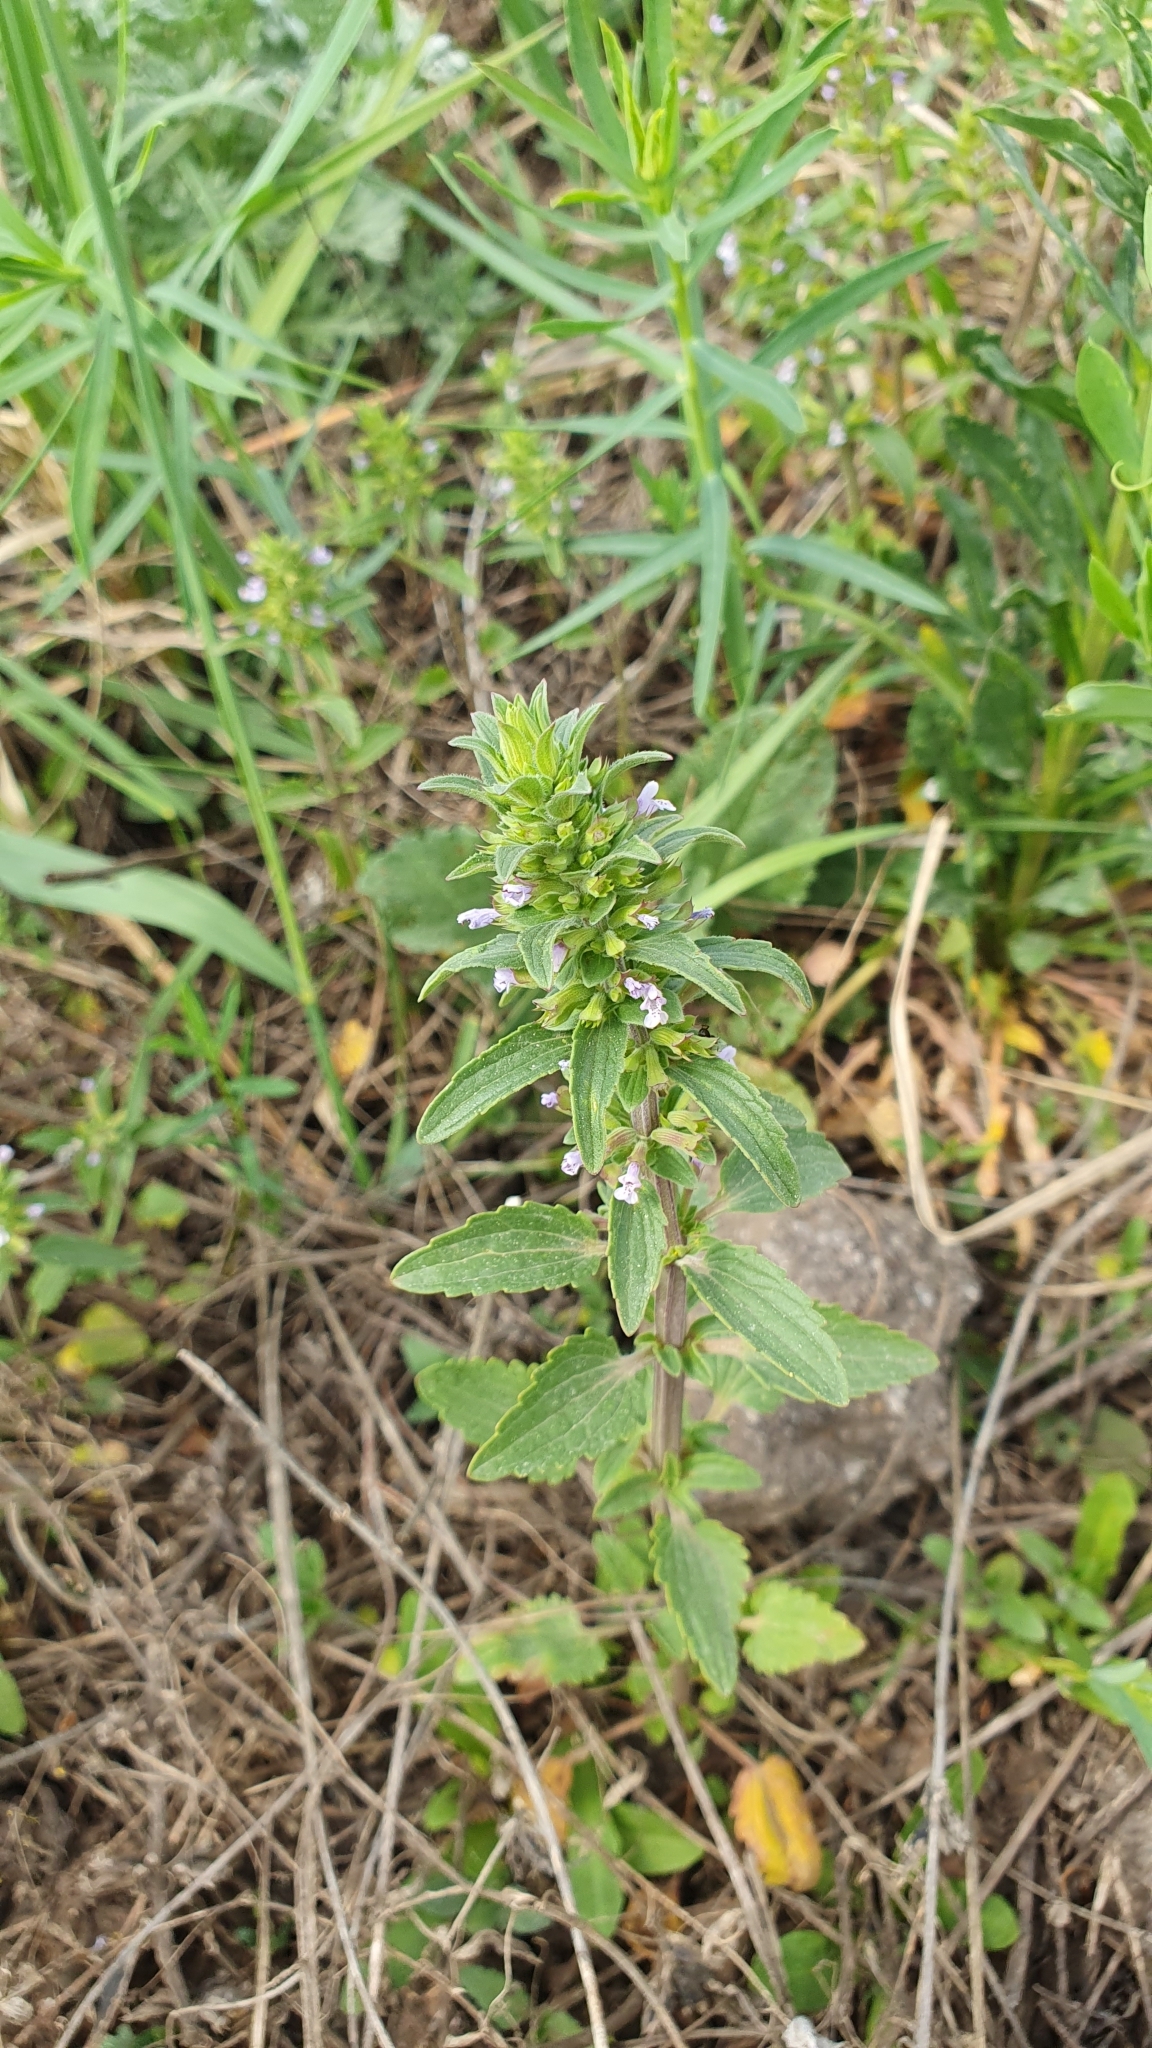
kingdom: Plantae
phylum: Tracheophyta
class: Magnoliopsida
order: Lamiales
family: Lamiaceae
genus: Dracocephalum
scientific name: Dracocephalum thymiflorum
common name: Thymeleaf dragonhead
